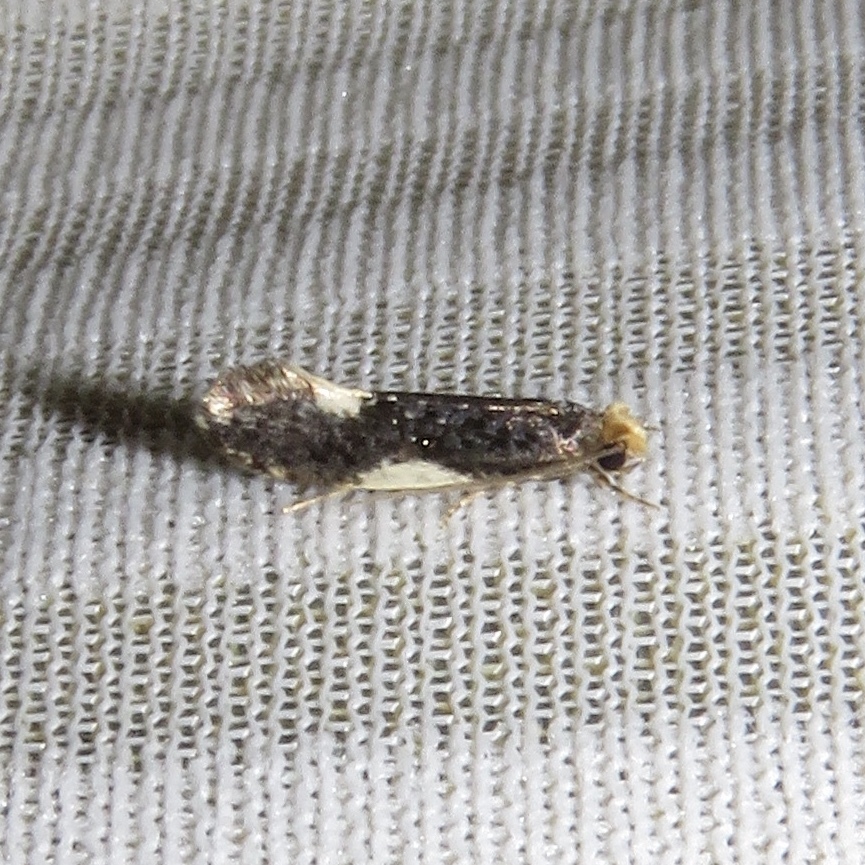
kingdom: Animalia
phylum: Arthropoda
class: Insecta
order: Lepidoptera
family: Tineidae
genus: Monopis
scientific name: Monopis spilotella
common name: Orange-headed monopis
